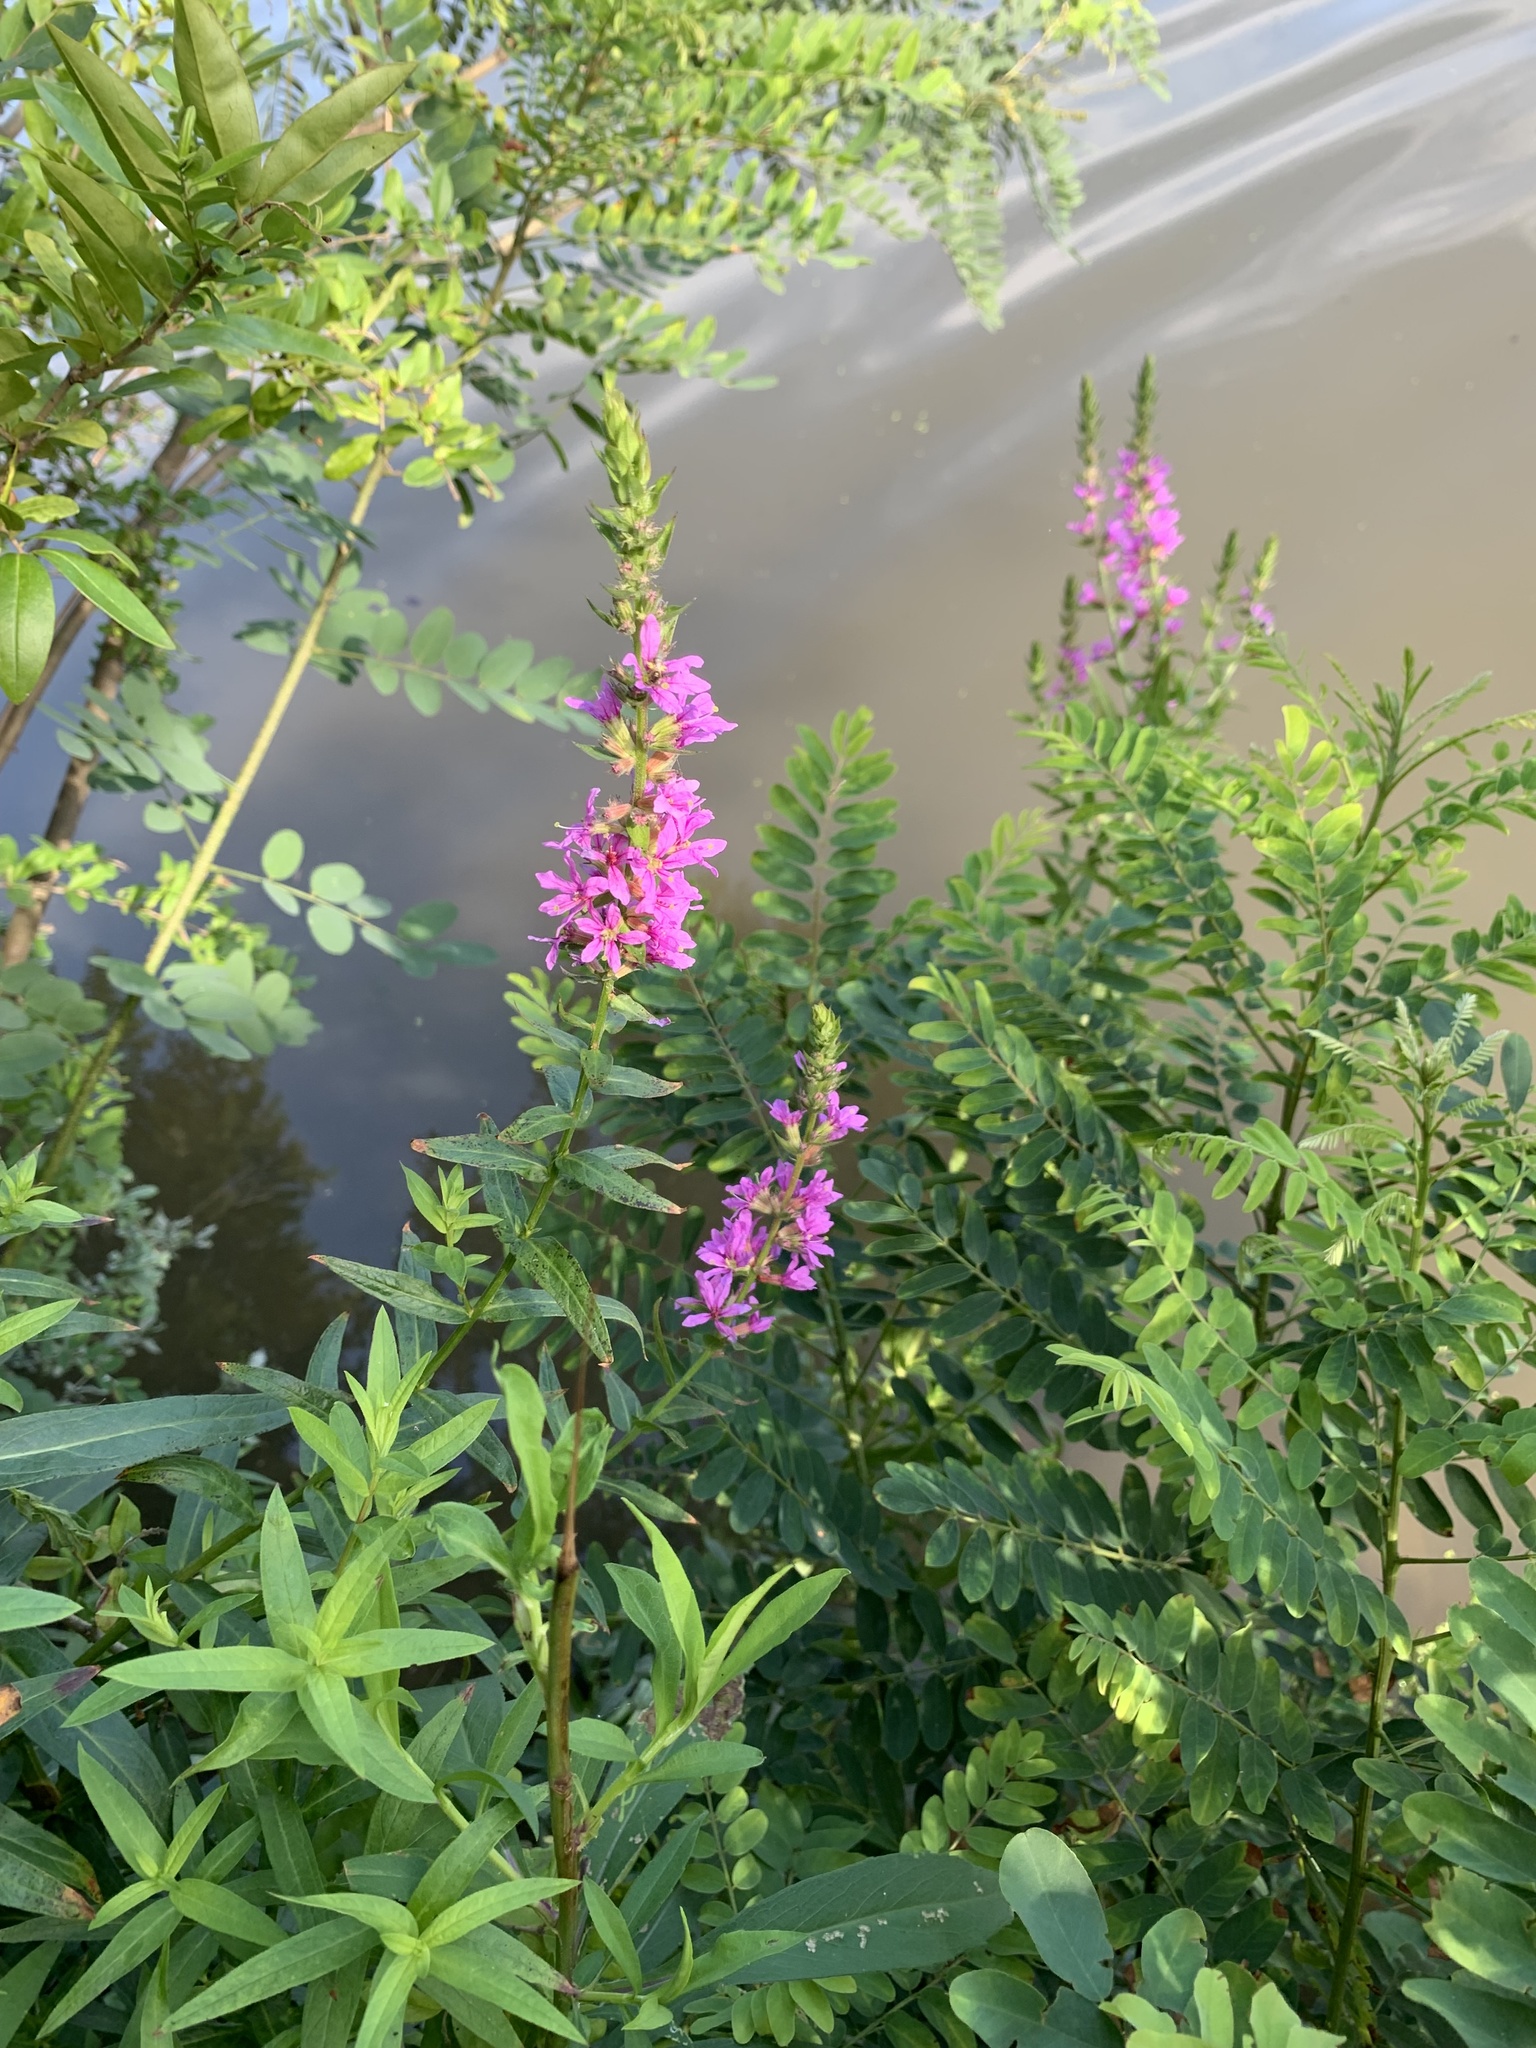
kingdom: Plantae
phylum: Tracheophyta
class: Magnoliopsida
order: Myrtales
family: Lythraceae
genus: Lythrum
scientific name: Lythrum salicaria
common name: Purple loosestrife
